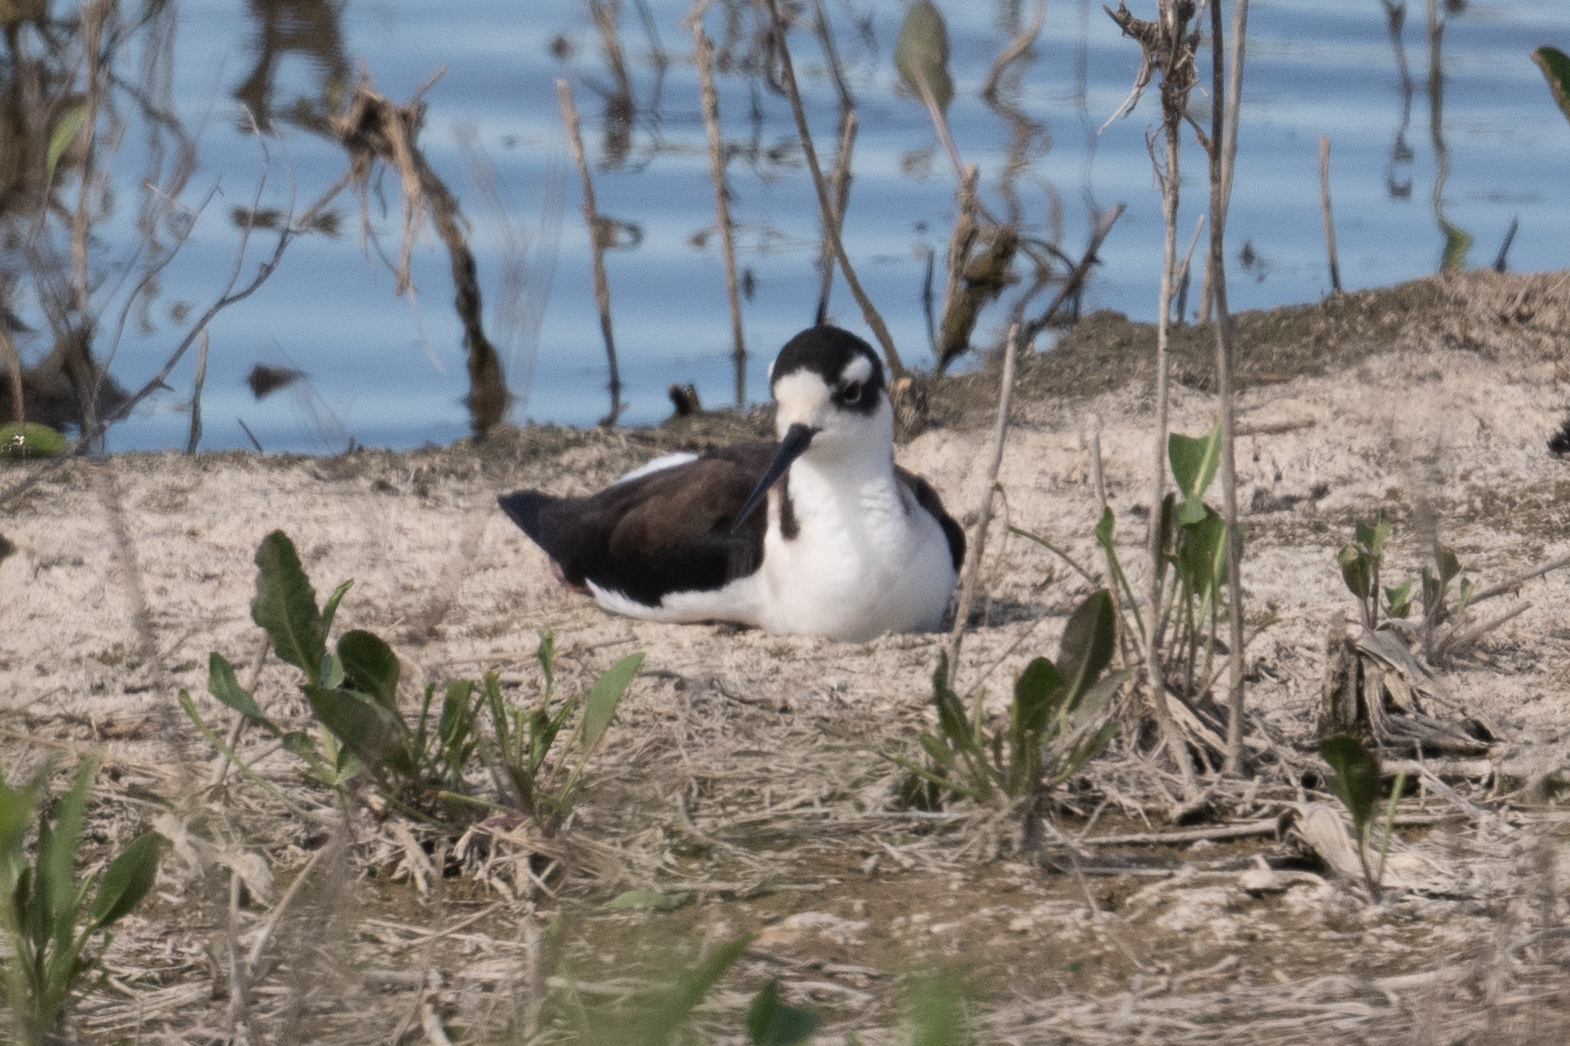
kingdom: Animalia
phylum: Chordata
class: Aves
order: Charadriiformes
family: Recurvirostridae
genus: Himantopus
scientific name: Himantopus mexicanus
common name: Black-necked stilt
